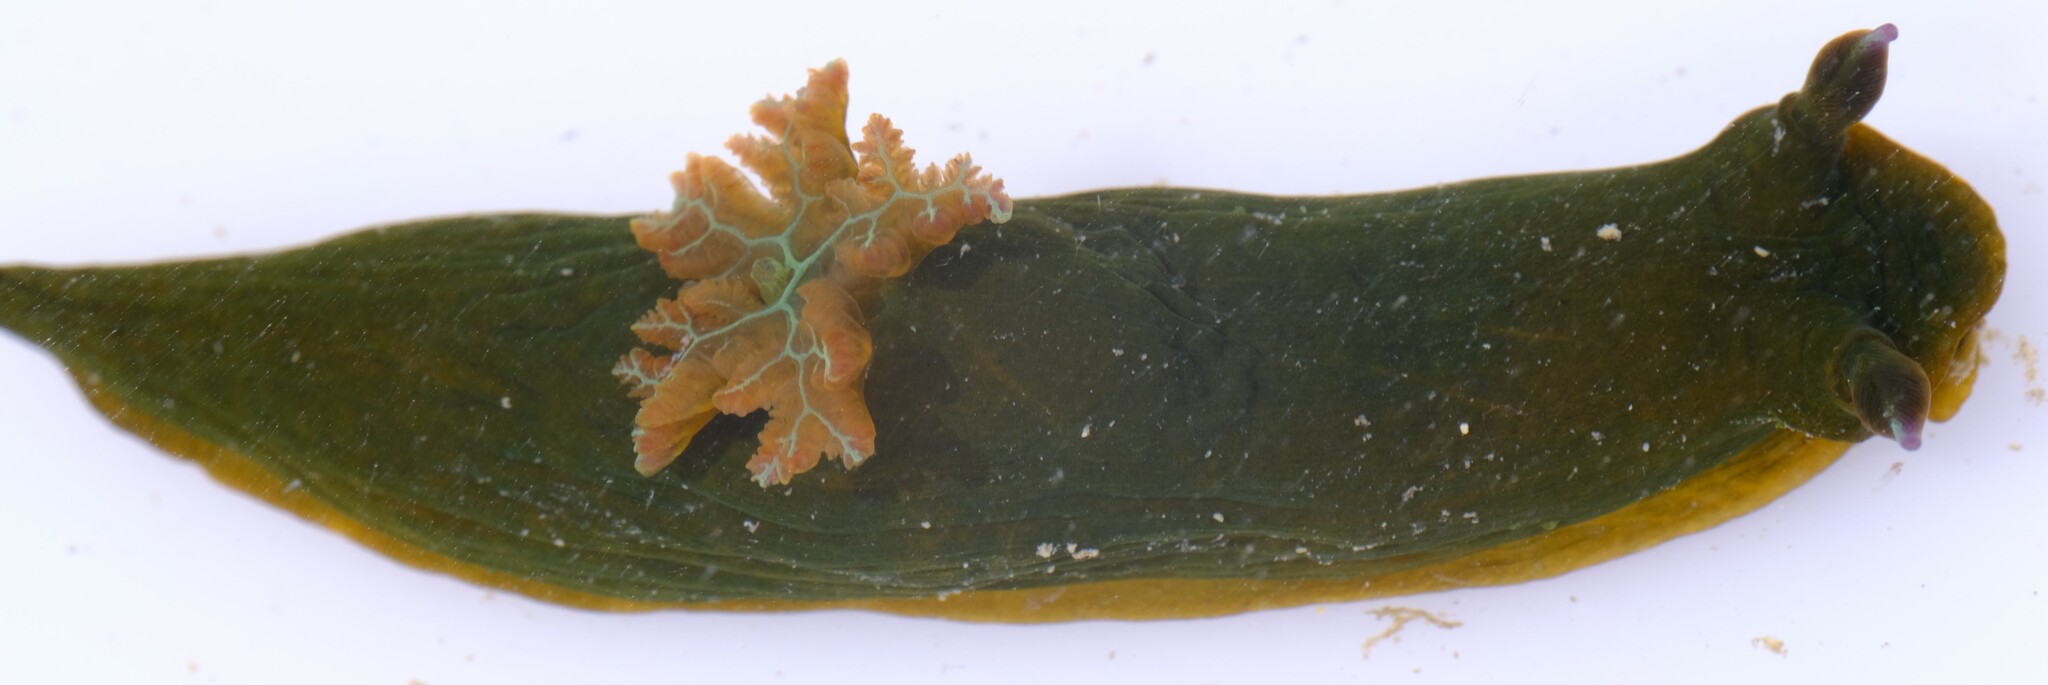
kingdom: Animalia
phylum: Mollusca
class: Gastropoda
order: Nudibranchia
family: Polyceridae
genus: Tambja
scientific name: Tambja dracomus
